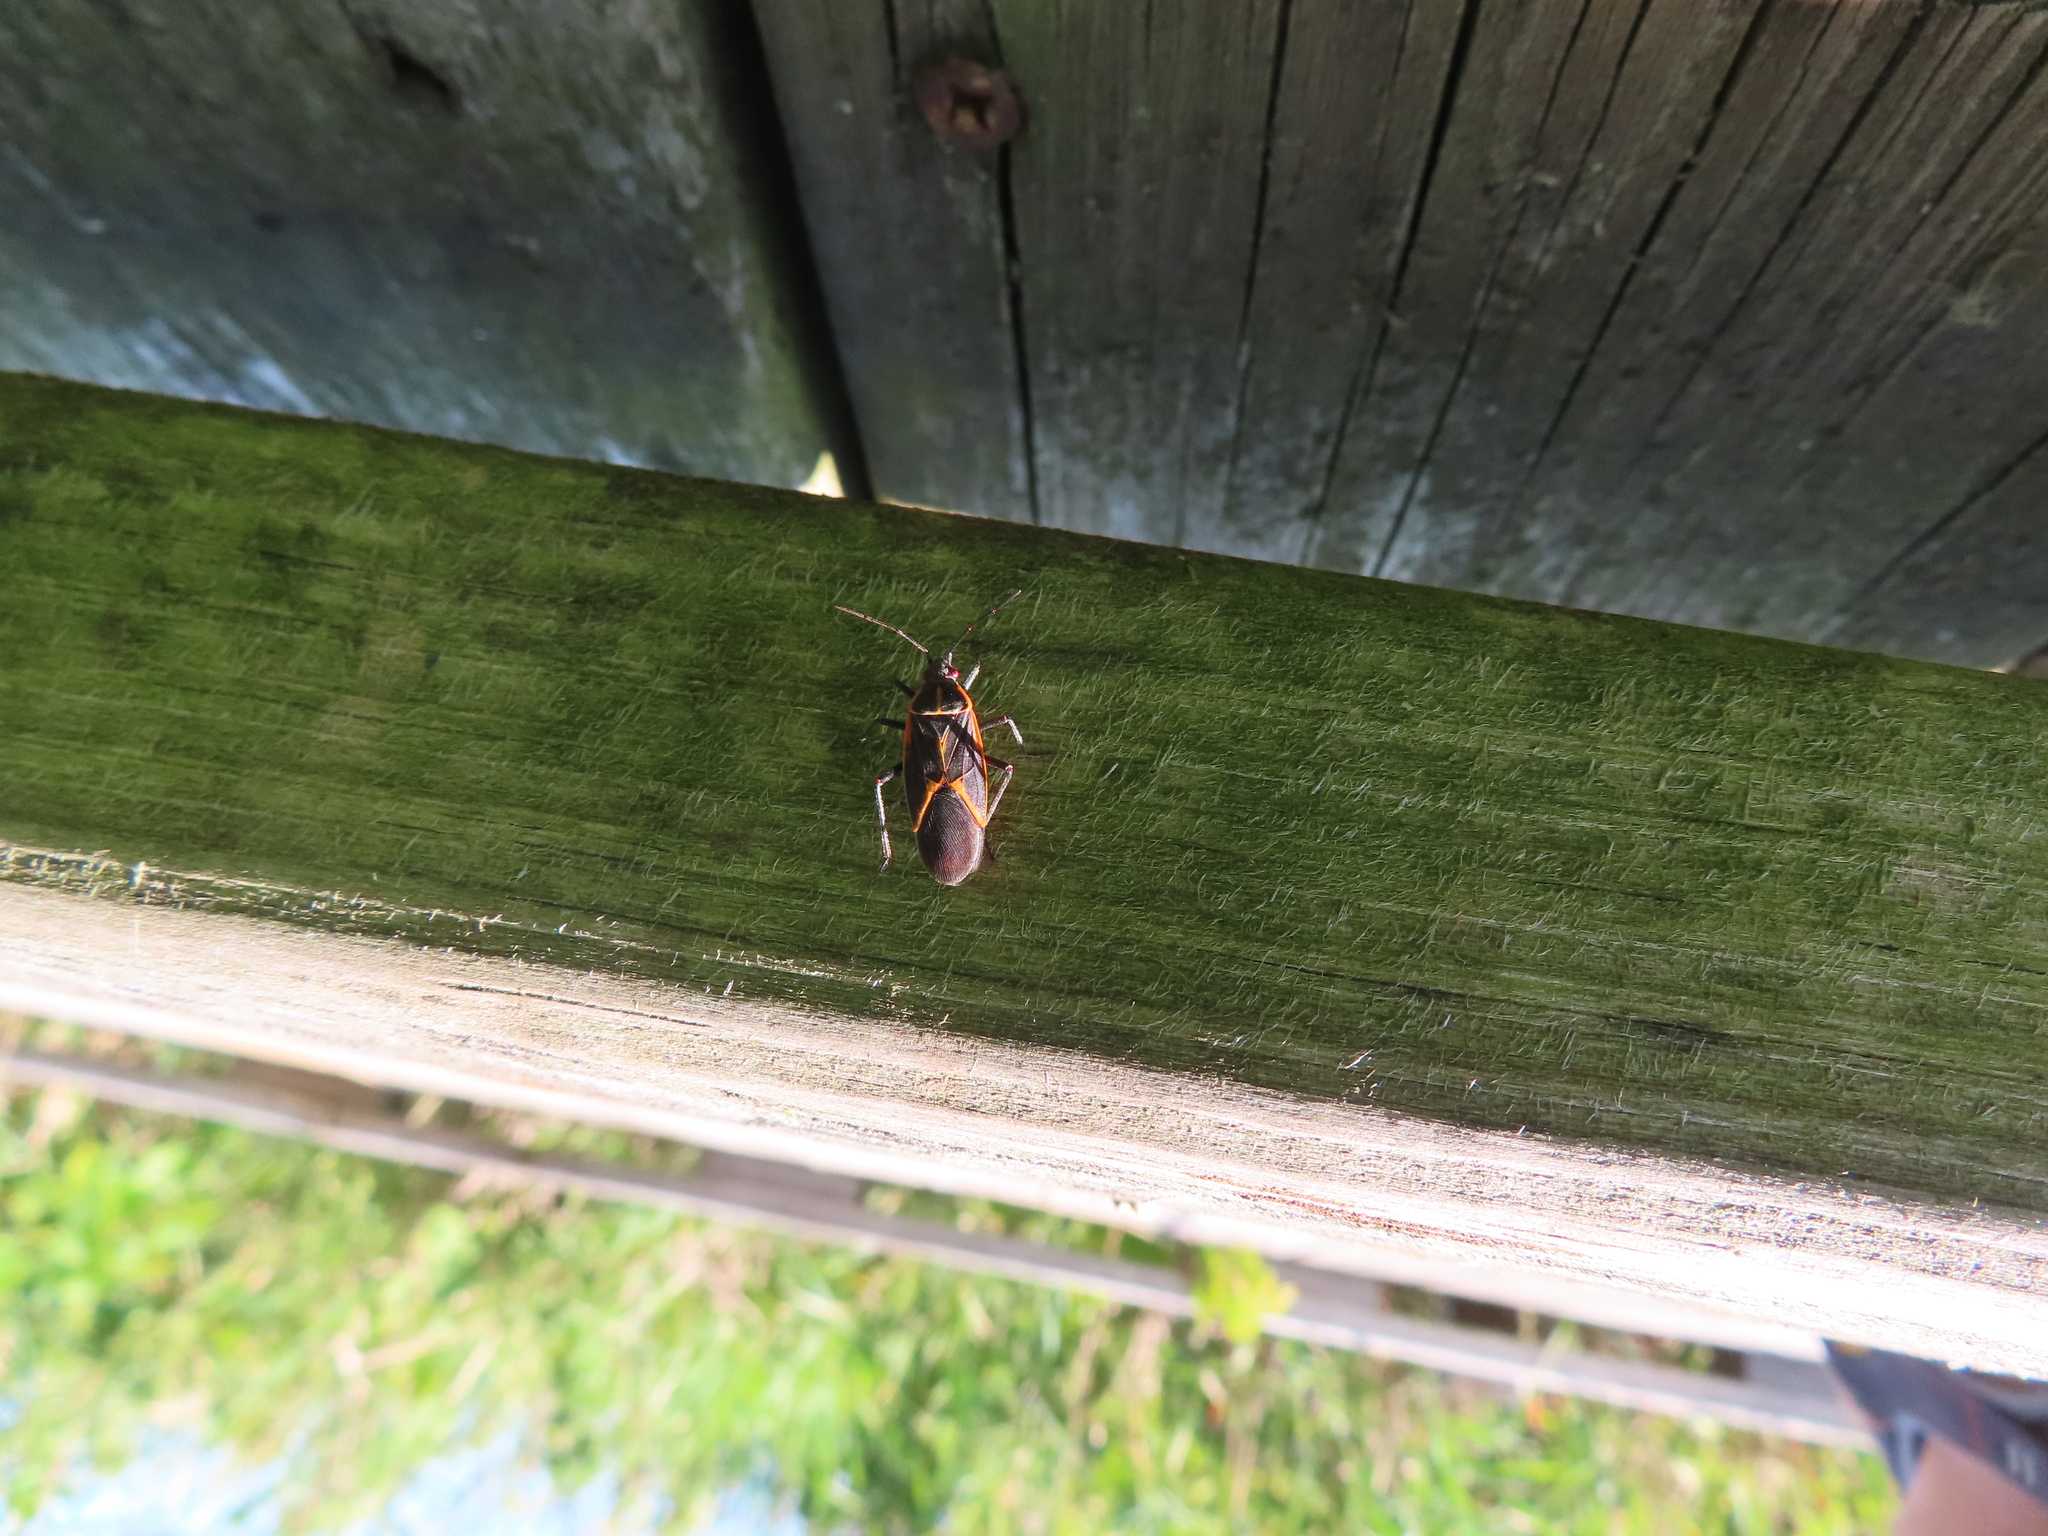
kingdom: Animalia
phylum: Arthropoda
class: Insecta
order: Hemiptera
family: Rhopalidae
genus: Boisea
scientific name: Boisea trivittata
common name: Boxelder bug
